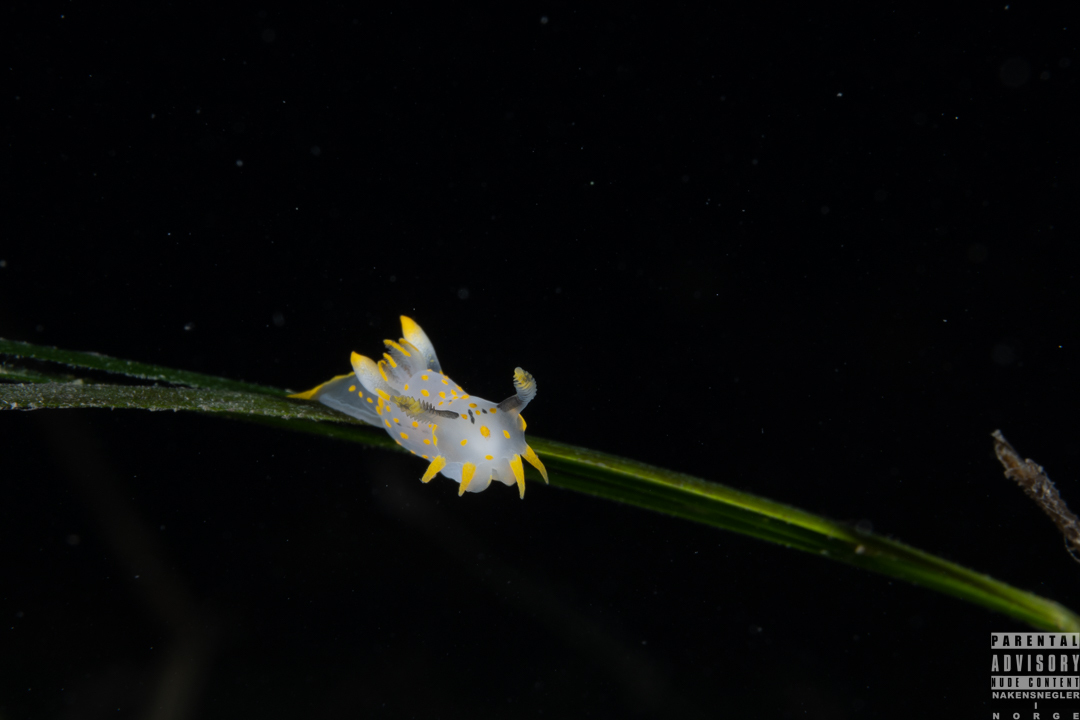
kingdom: Animalia
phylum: Mollusca
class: Gastropoda
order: Nudibranchia
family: Polyceridae
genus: Polycera
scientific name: Polycera quadrilineata
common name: Four-striped polycera
